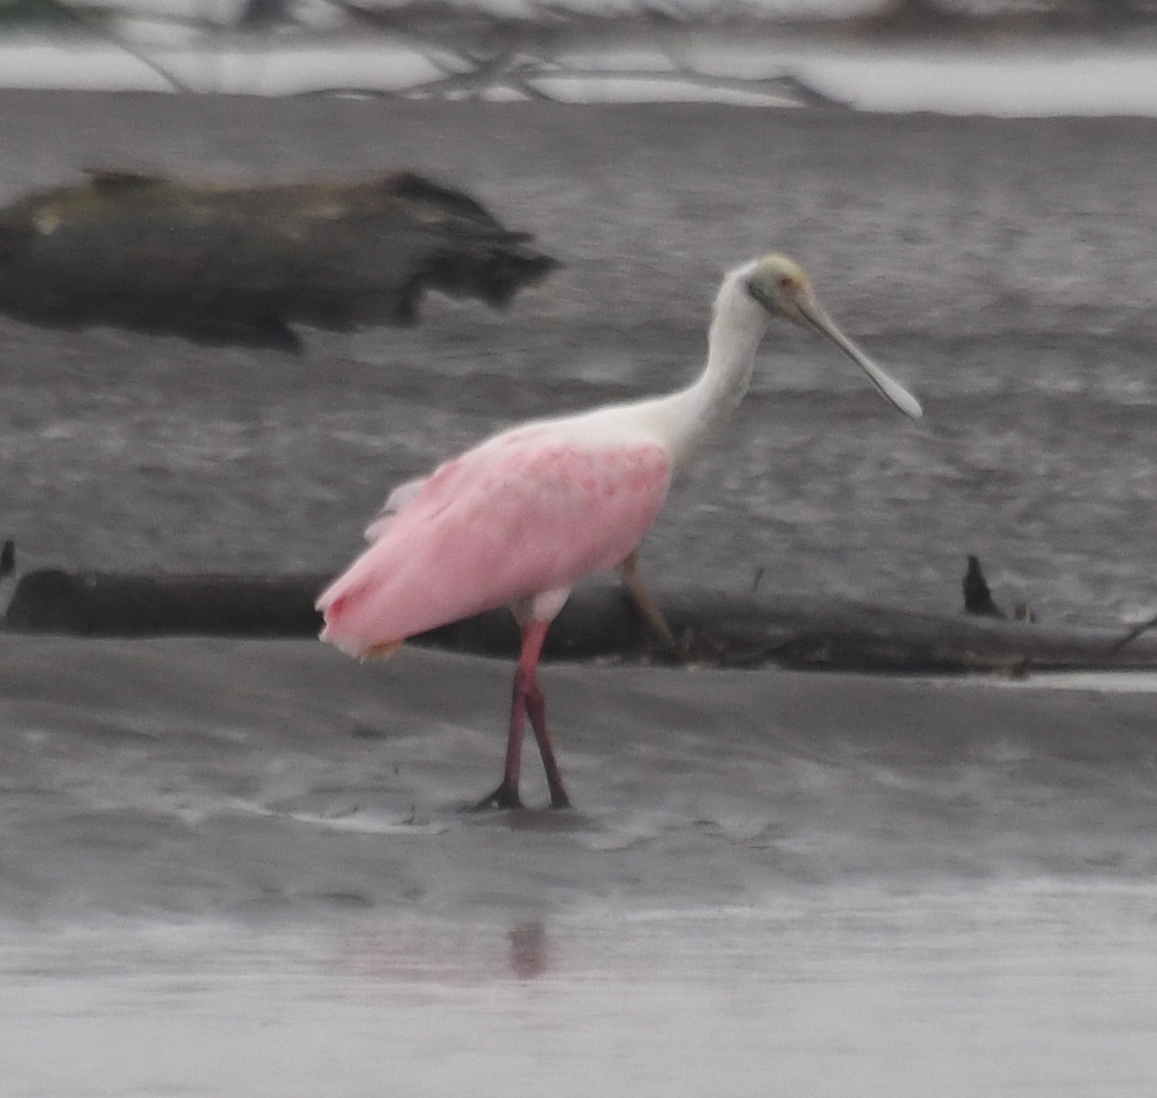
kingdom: Animalia
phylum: Chordata
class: Aves
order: Pelecaniformes
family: Threskiornithidae
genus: Platalea
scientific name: Platalea ajaja
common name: Roseate spoonbill
